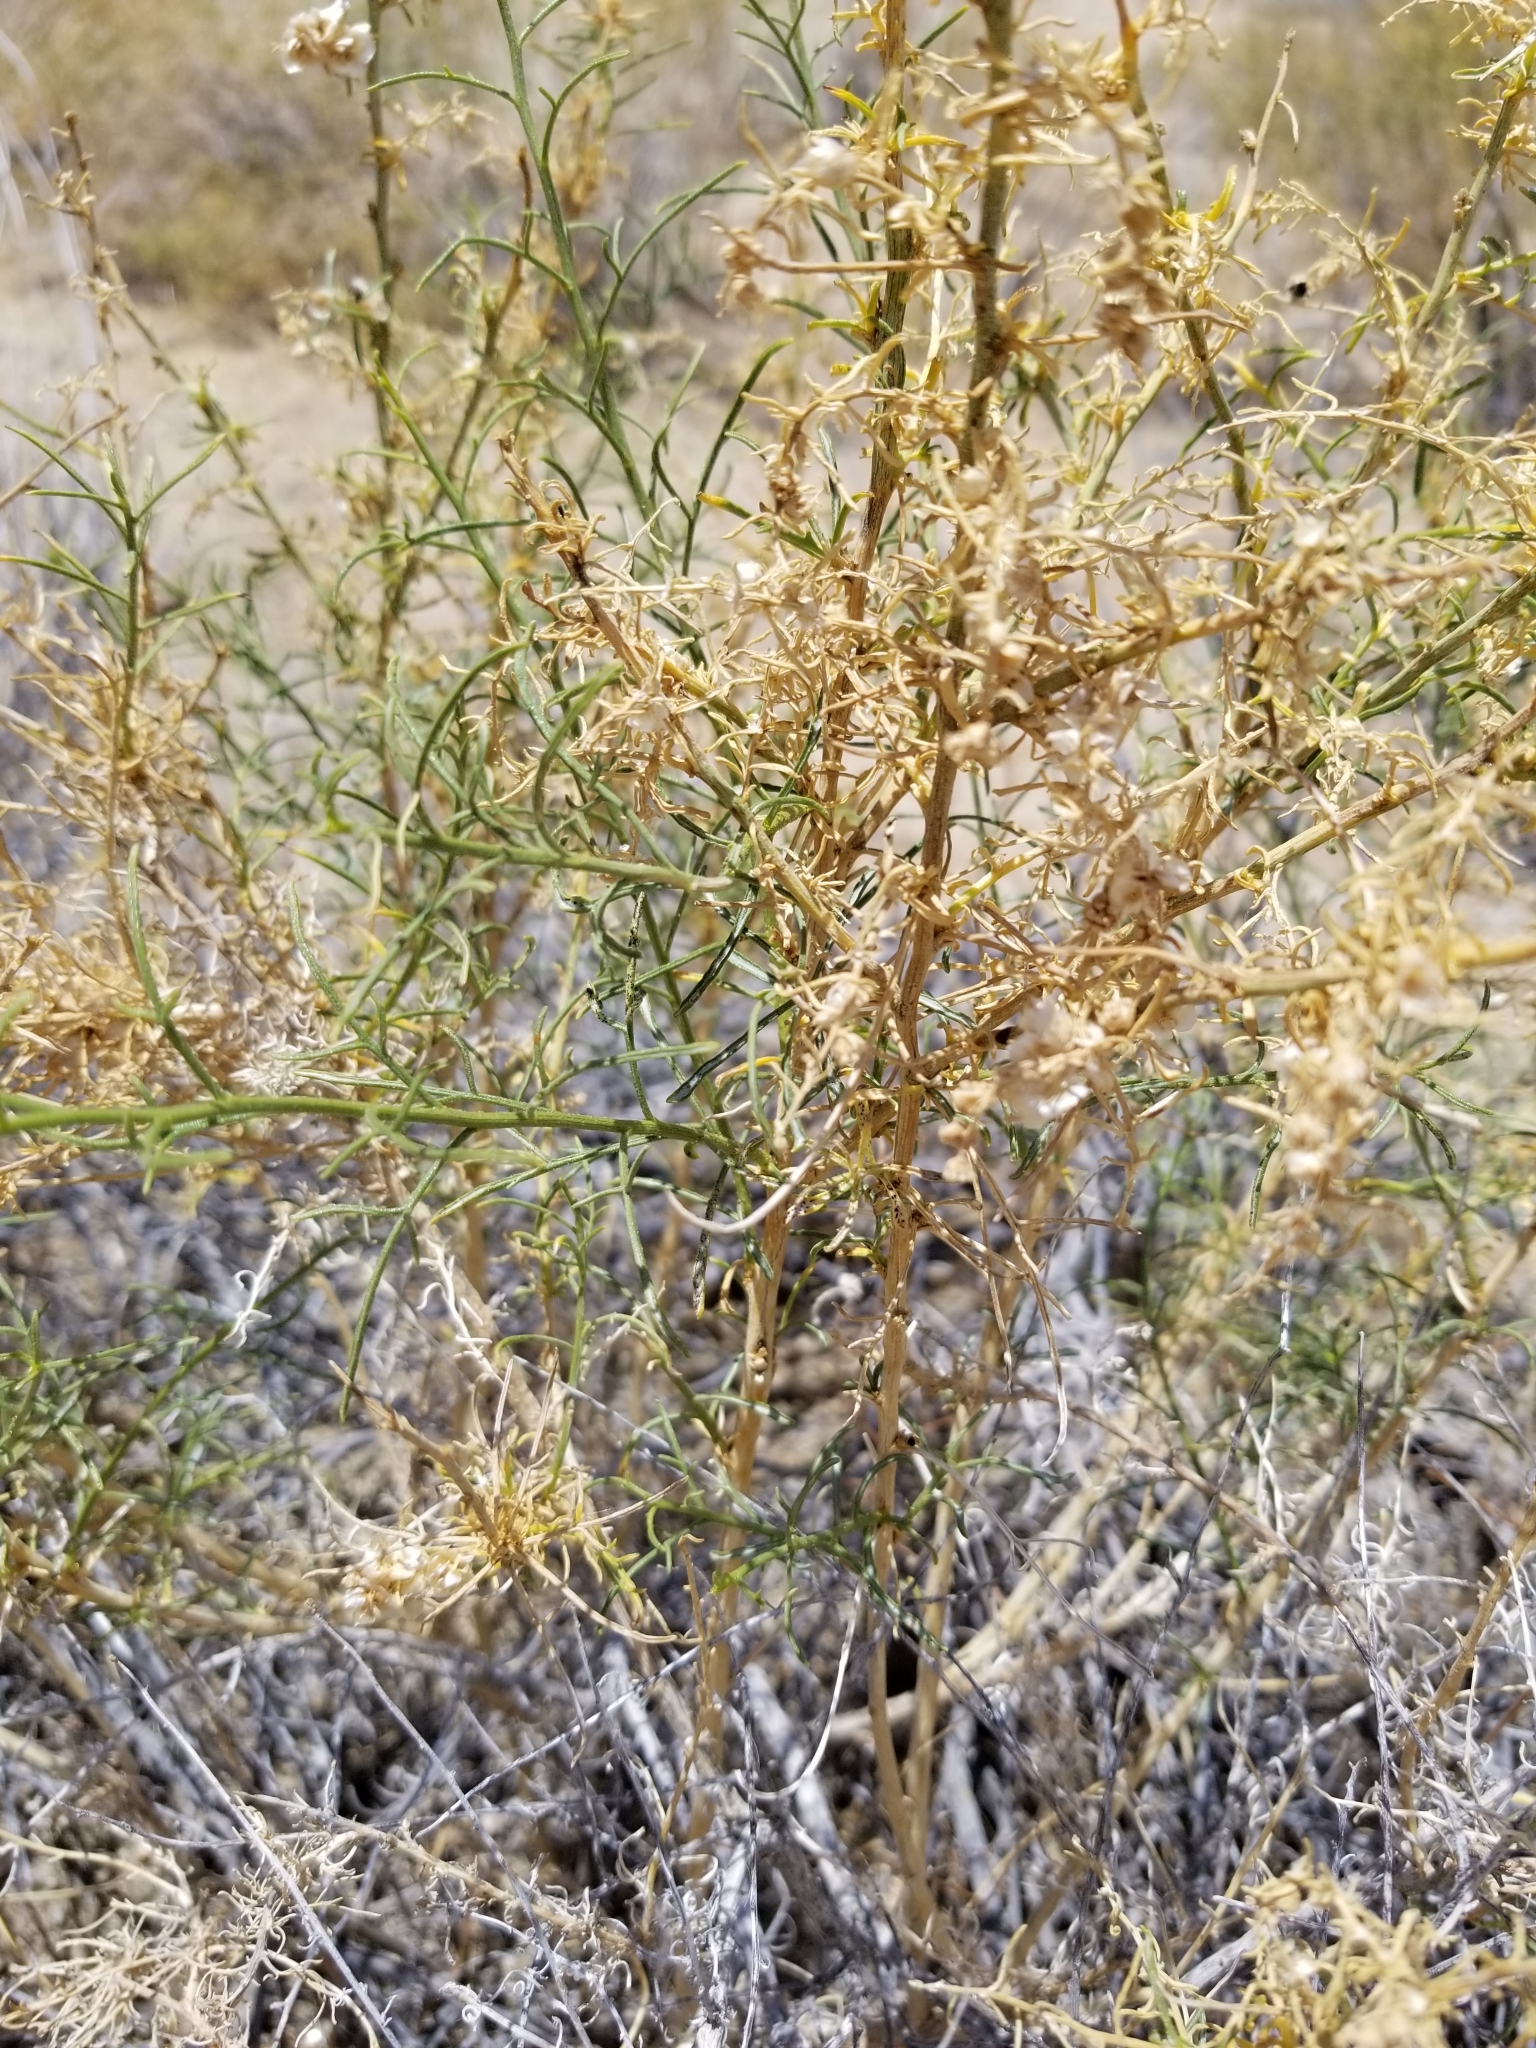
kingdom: Plantae
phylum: Tracheophyta
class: Magnoliopsida
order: Asterales
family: Asteraceae
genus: Ambrosia
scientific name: Ambrosia salsola
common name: Burrobrush
